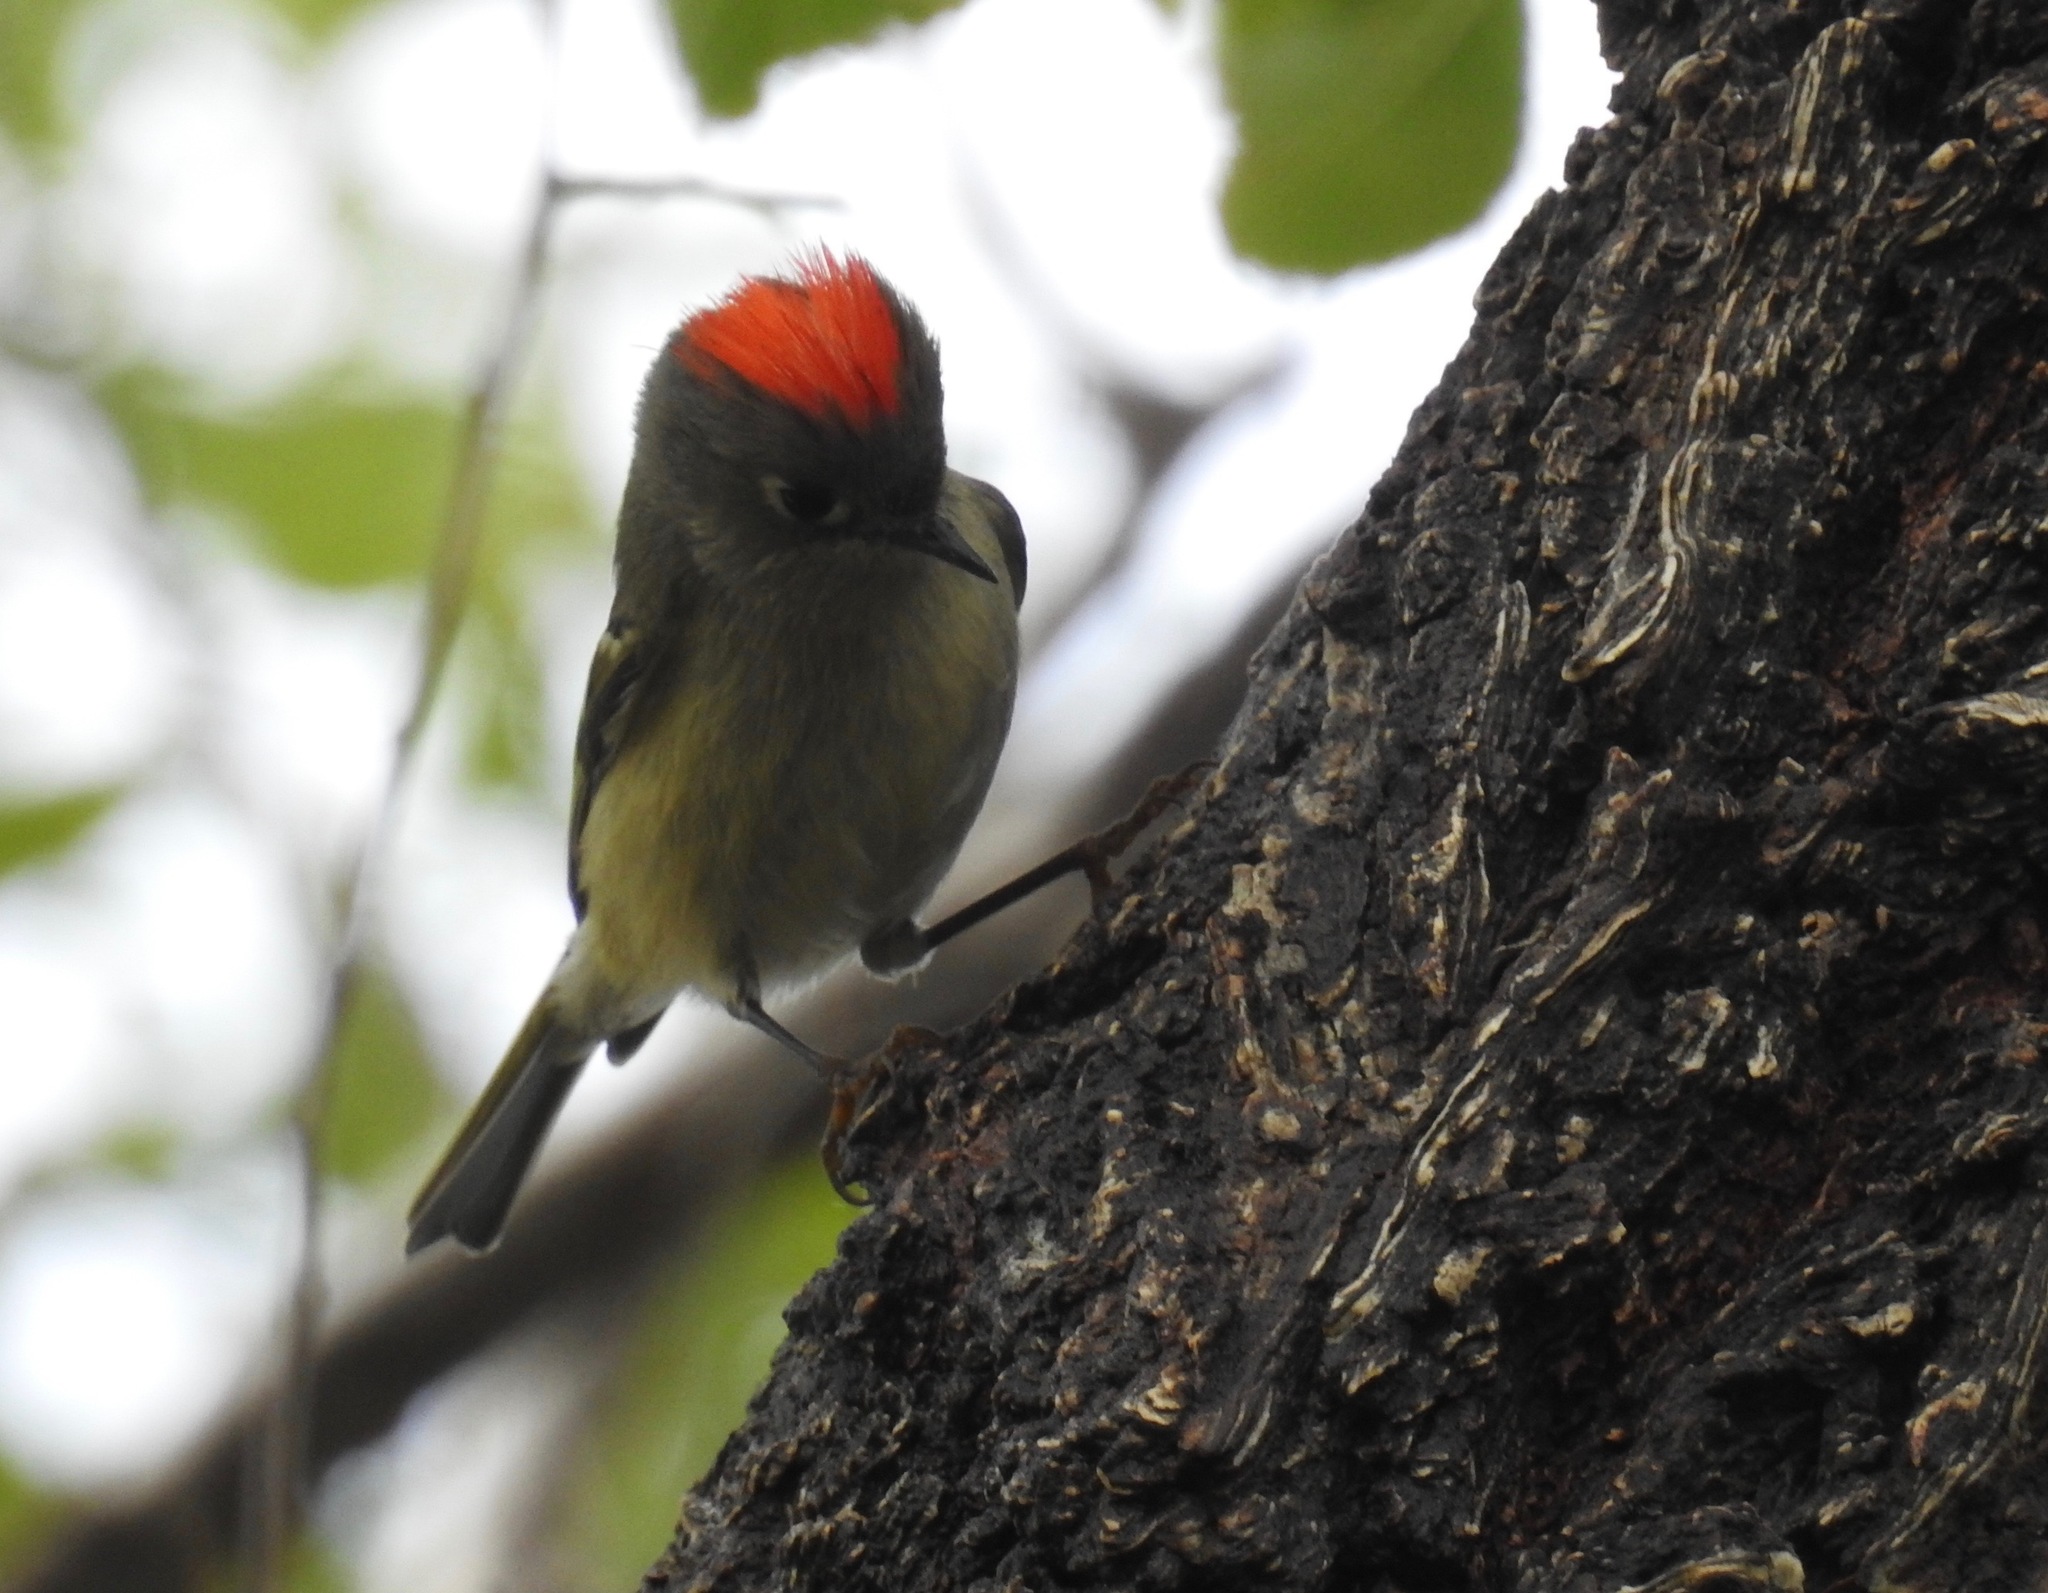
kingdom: Animalia
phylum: Chordata
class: Aves
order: Passeriformes
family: Regulidae
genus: Regulus
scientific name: Regulus calendula
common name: Ruby-crowned kinglet
